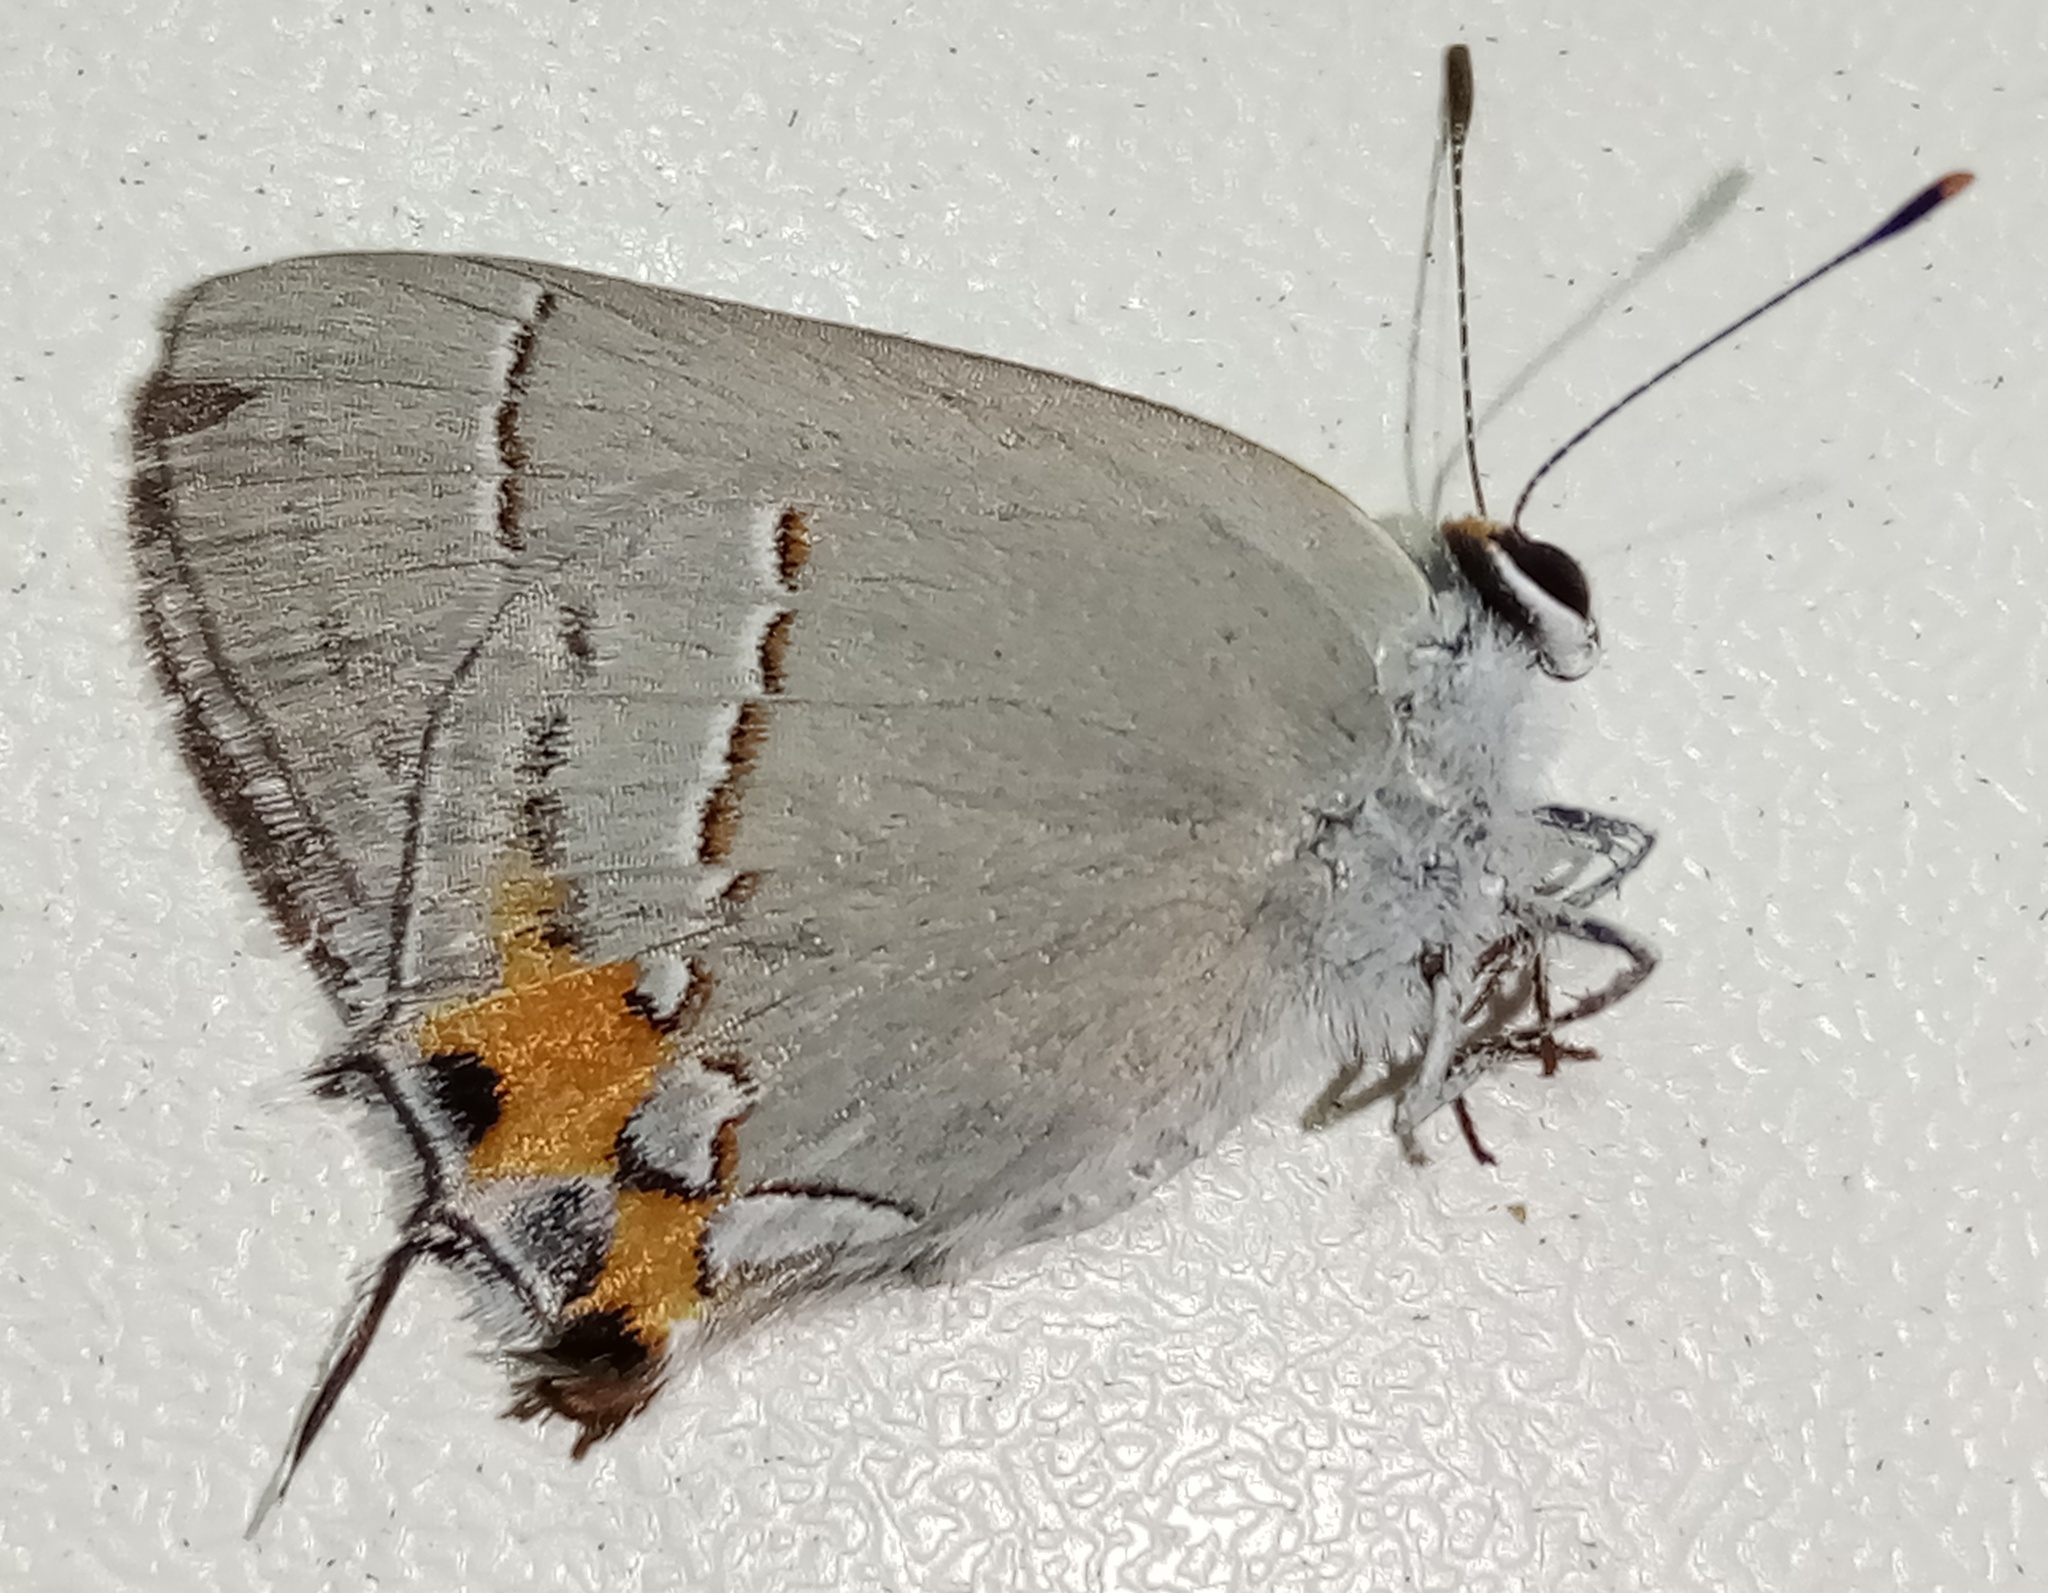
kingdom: Animalia
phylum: Arthropoda
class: Insecta
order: Lepidoptera
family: Lycaenidae
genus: Strymon
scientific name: Strymon melinus
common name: Gray hairstreak
